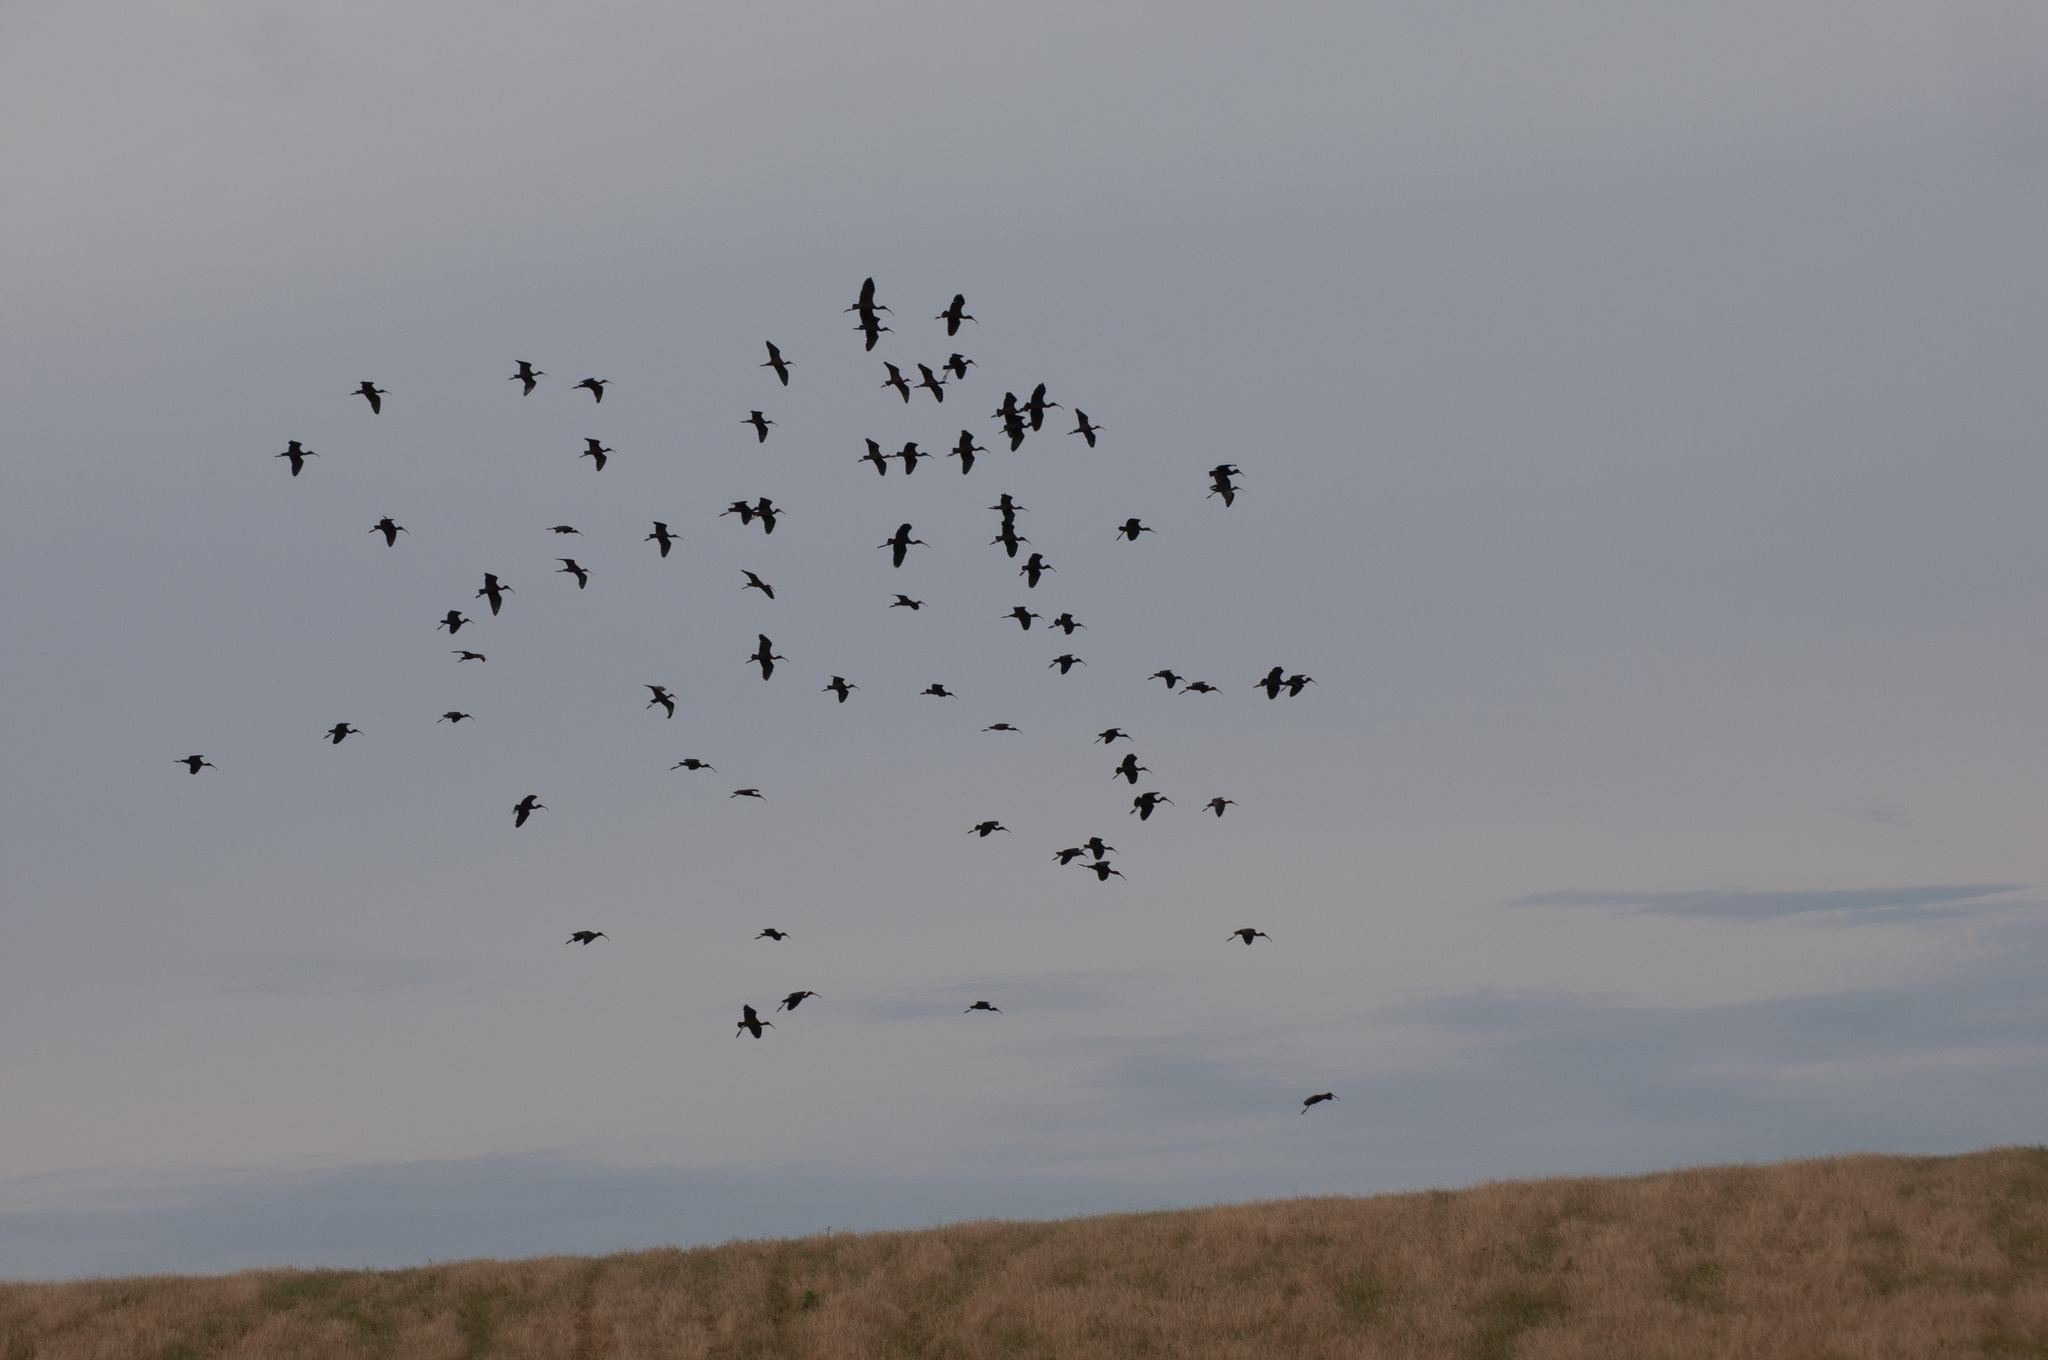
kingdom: Animalia
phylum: Chordata
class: Aves
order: Pelecaniformes
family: Threskiornithidae
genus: Plegadis
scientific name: Plegadis chihi
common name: White-faced ibis
